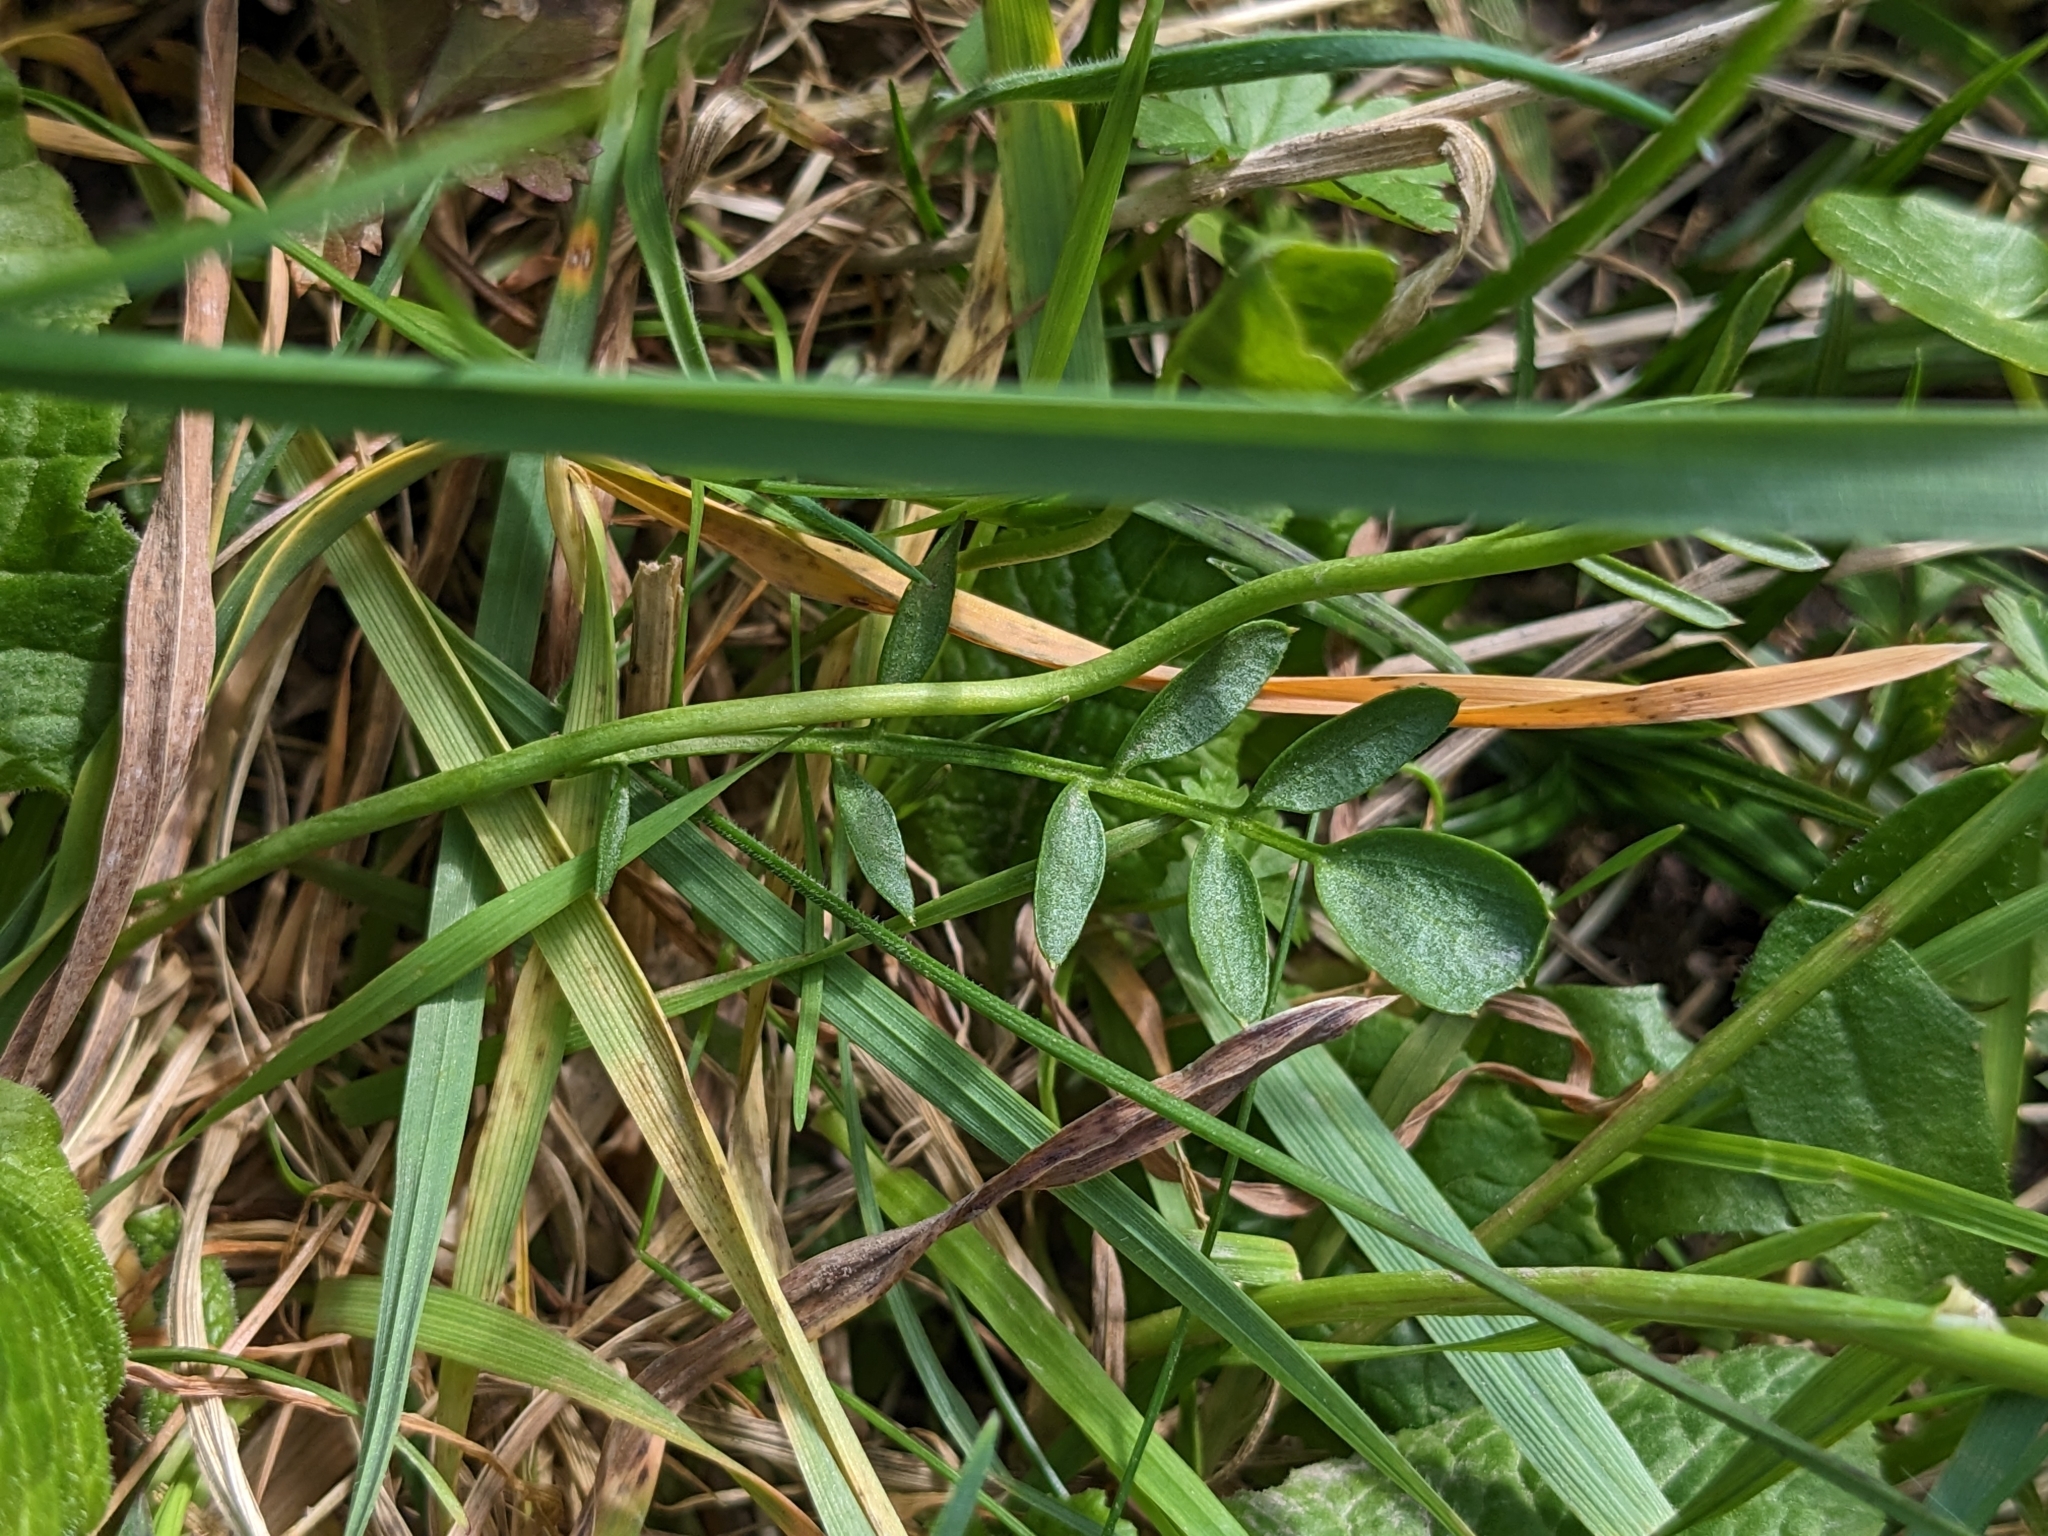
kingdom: Plantae
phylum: Tracheophyta
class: Magnoliopsida
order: Brassicales
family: Brassicaceae
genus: Cardamine
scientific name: Cardamine pratensis
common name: Cuckoo flower
